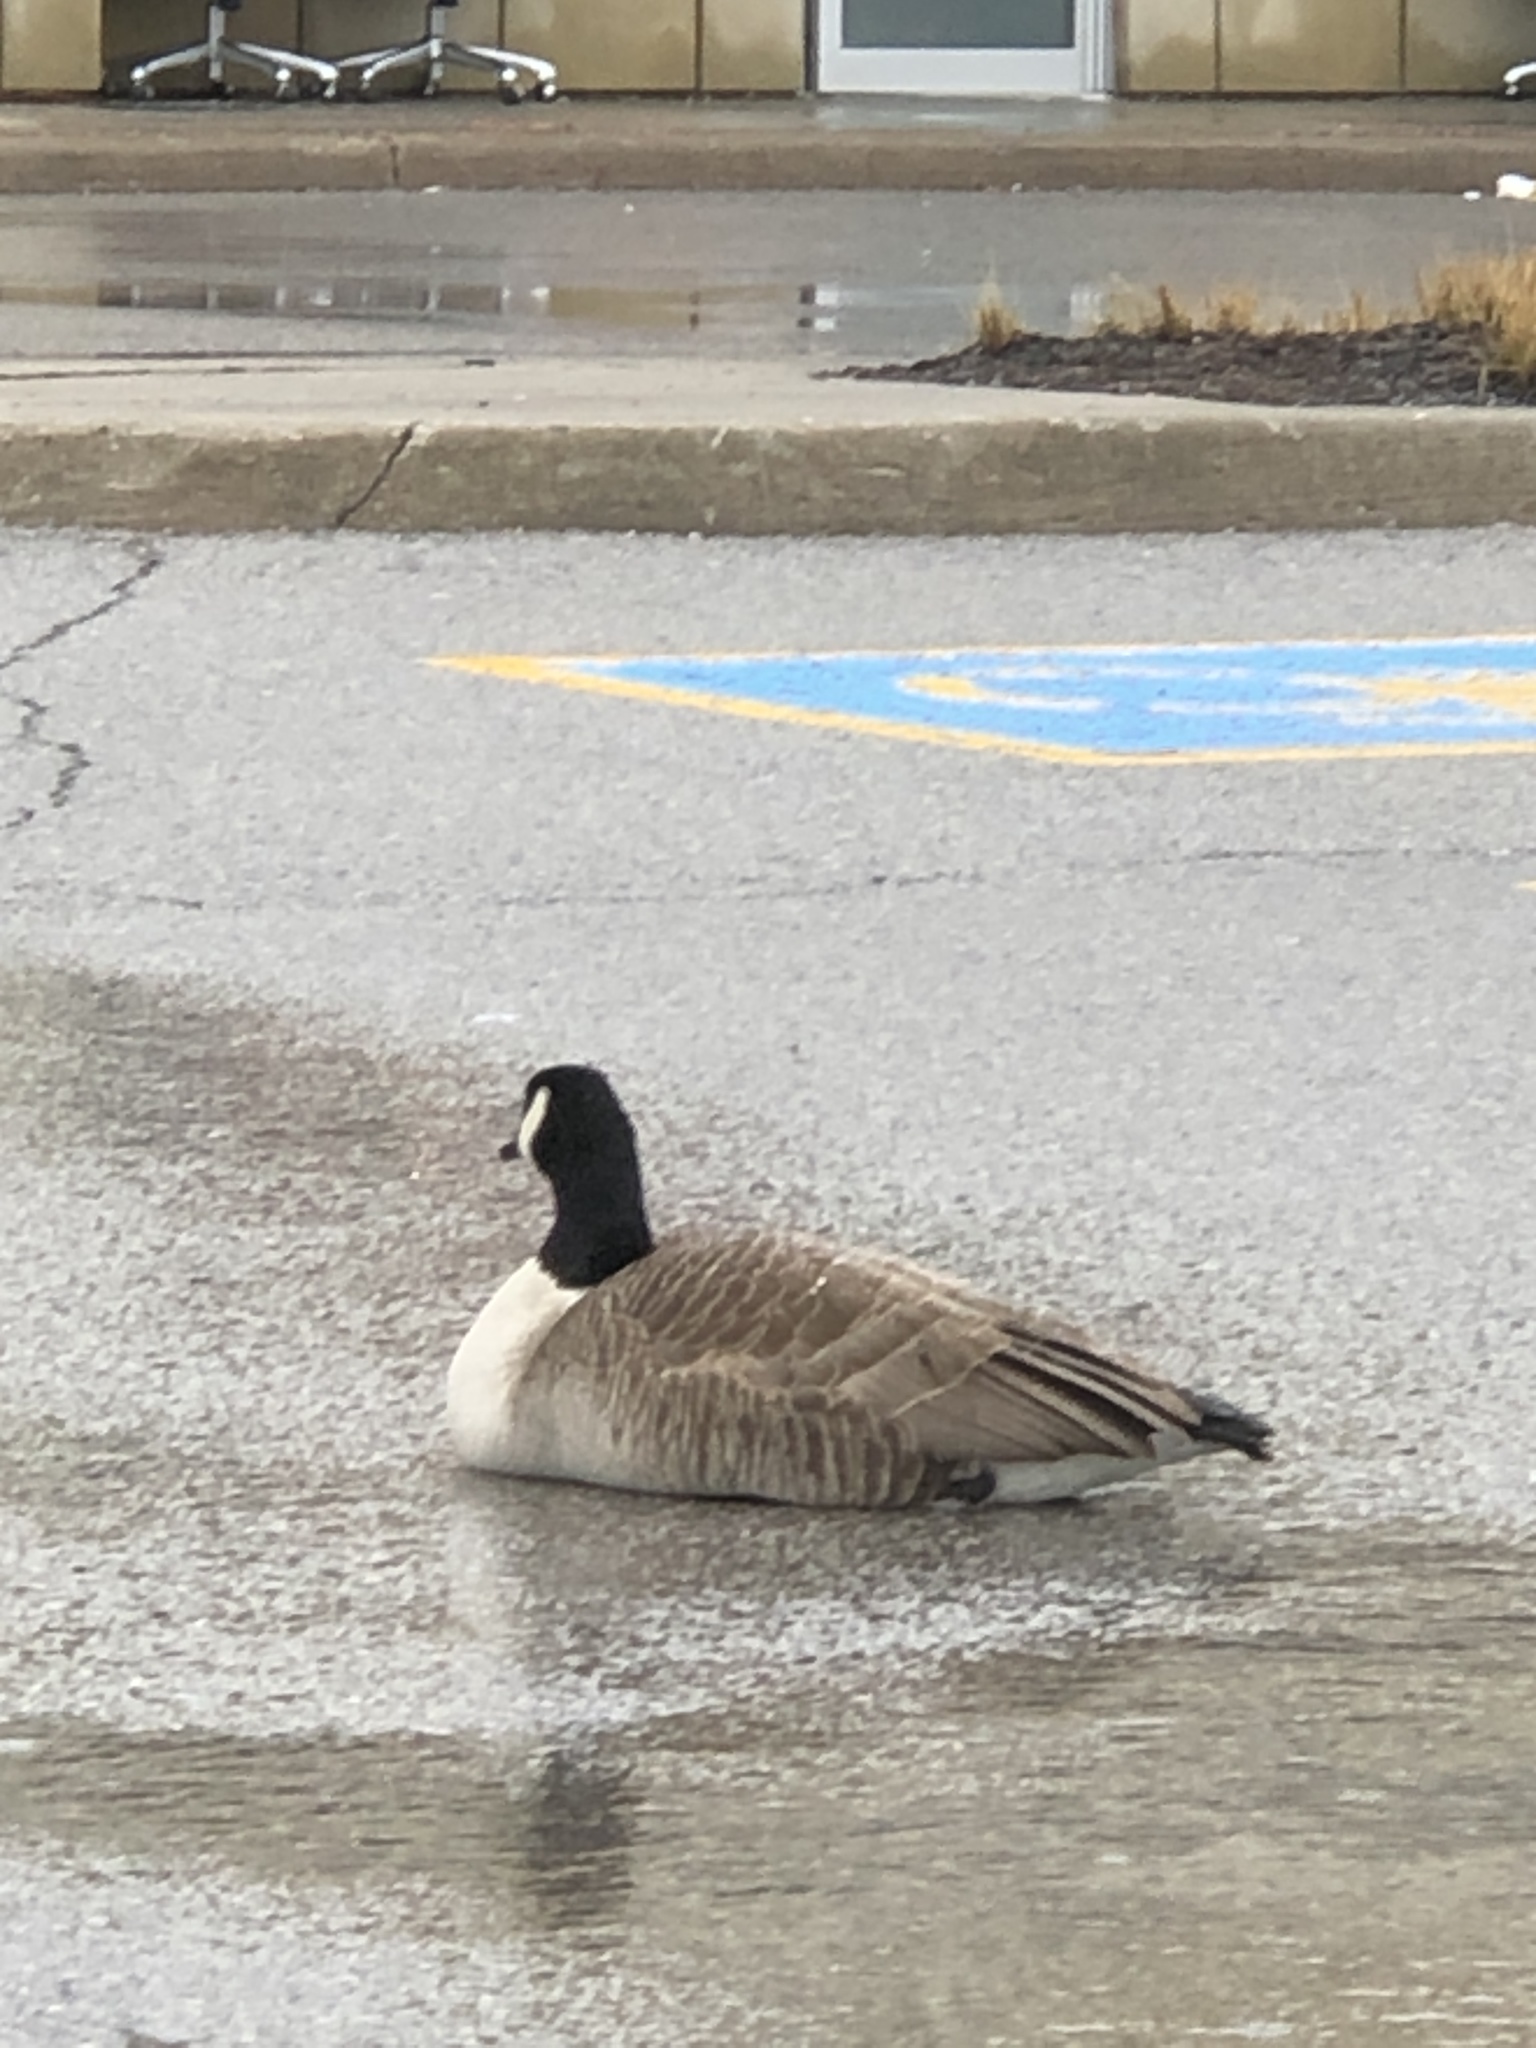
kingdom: Animalia
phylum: Chordata
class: Aves
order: Anseriformes
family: Anatidae
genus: Branta
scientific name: Branta canadensis
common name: Canada goose
